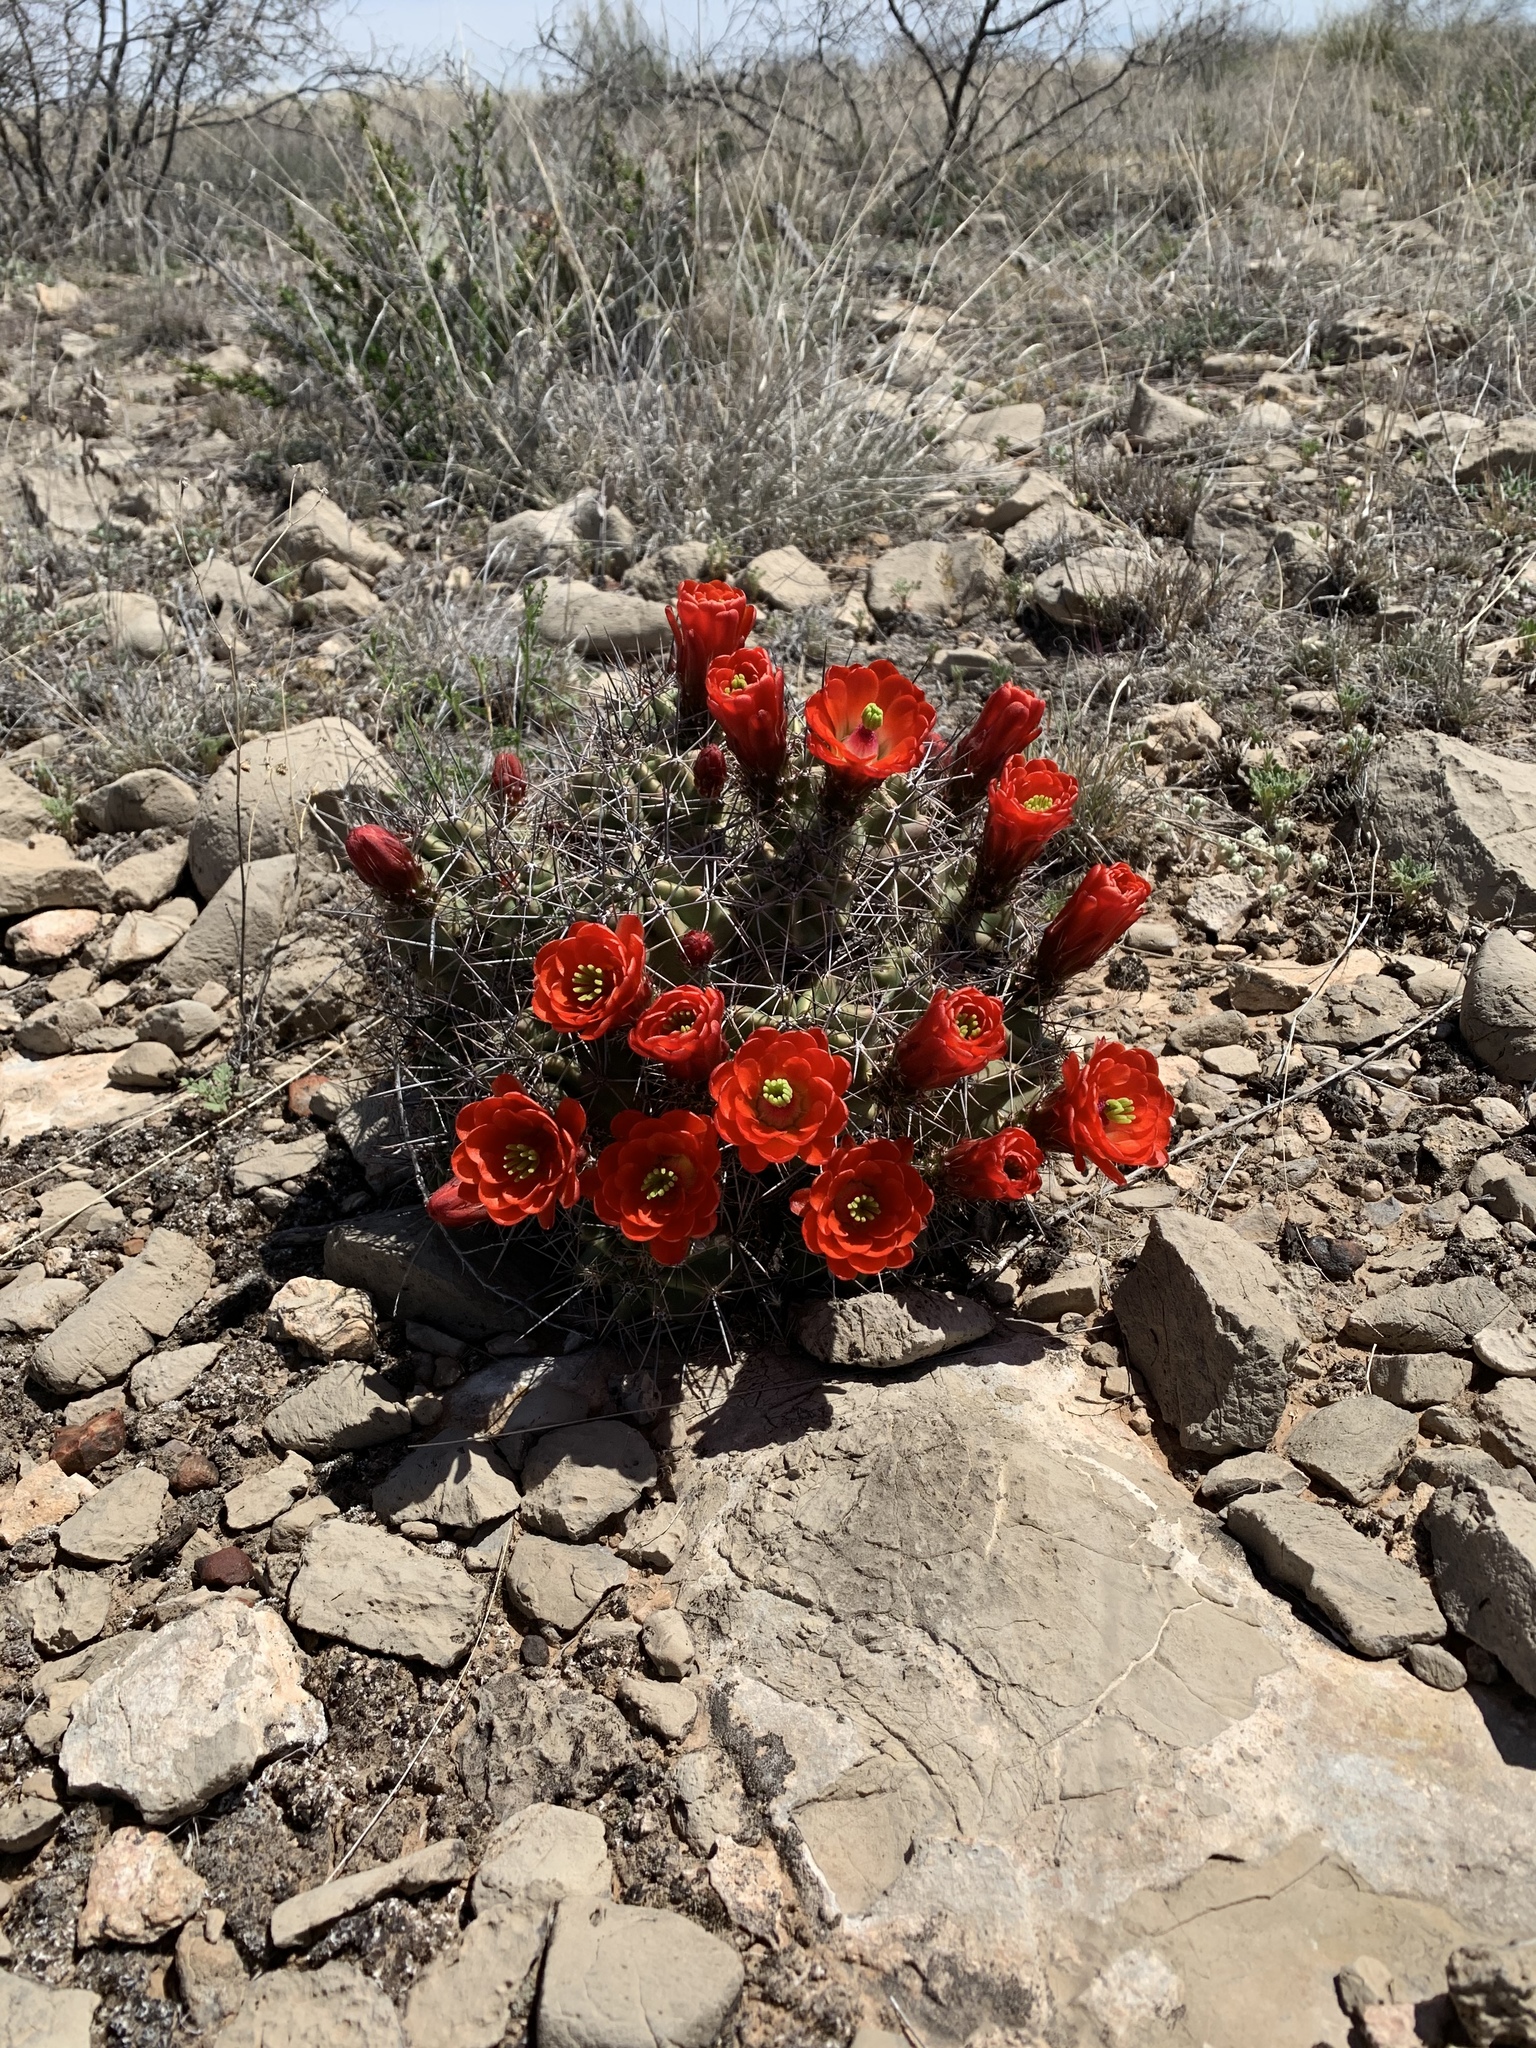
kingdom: Plantae
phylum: Tracheophyta
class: Magnoliopsida
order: Caryophyllales
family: Cactaceae
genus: Echinocereus
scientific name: Echinocereus coccineus
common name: Scarlet hedgehog cactus
